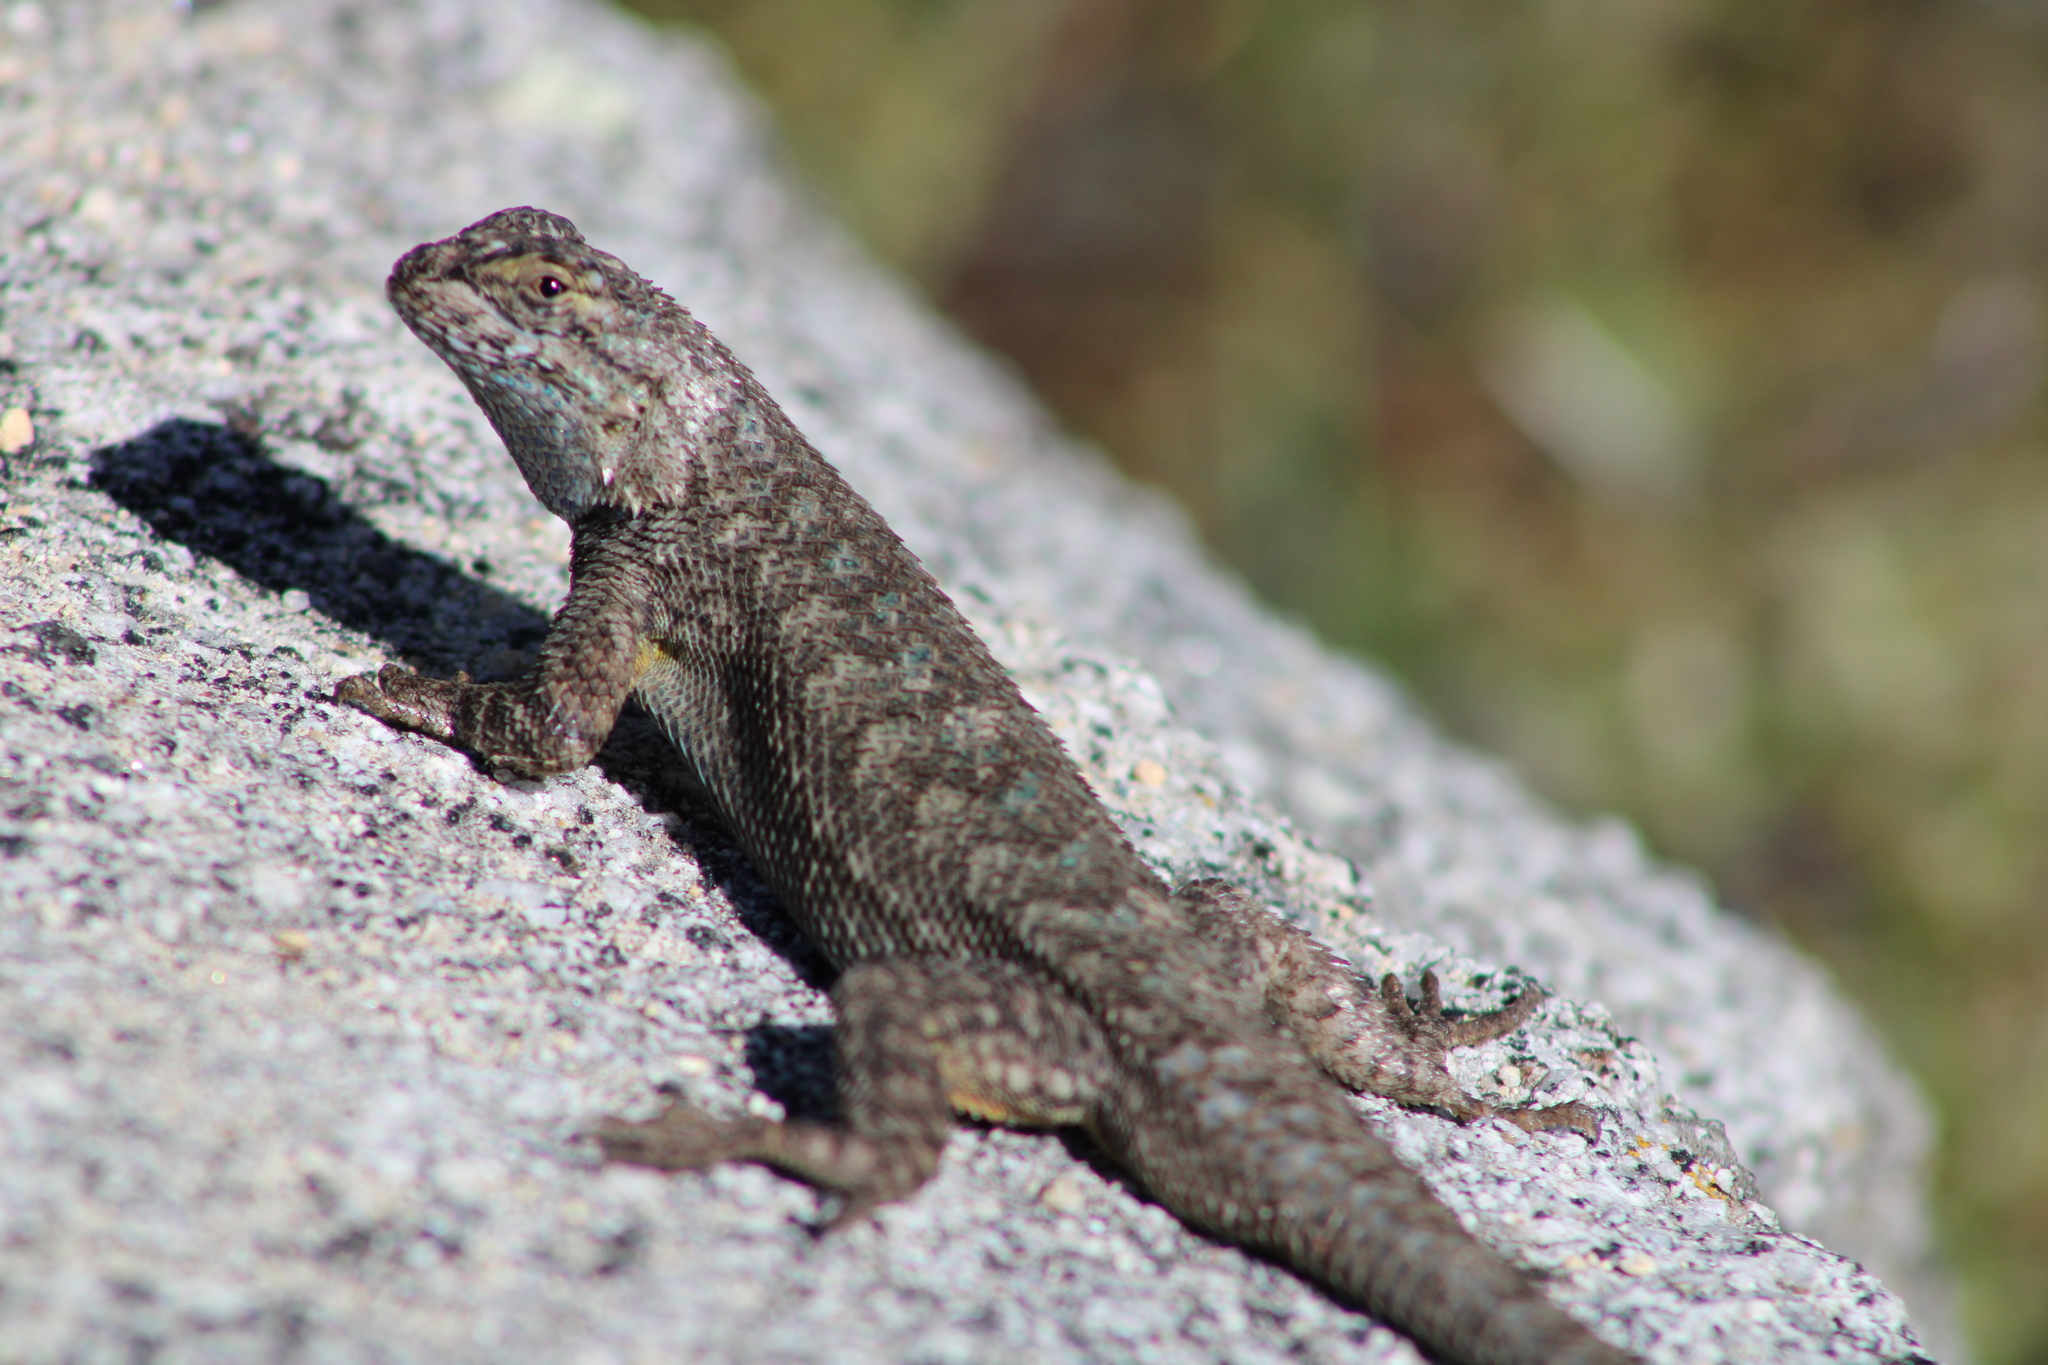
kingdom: Animalia
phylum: Chordata
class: Squamata
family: Phrynosomatidae
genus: Sceloporus
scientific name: Sceloporus occidentalis
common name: Western fence lizard
